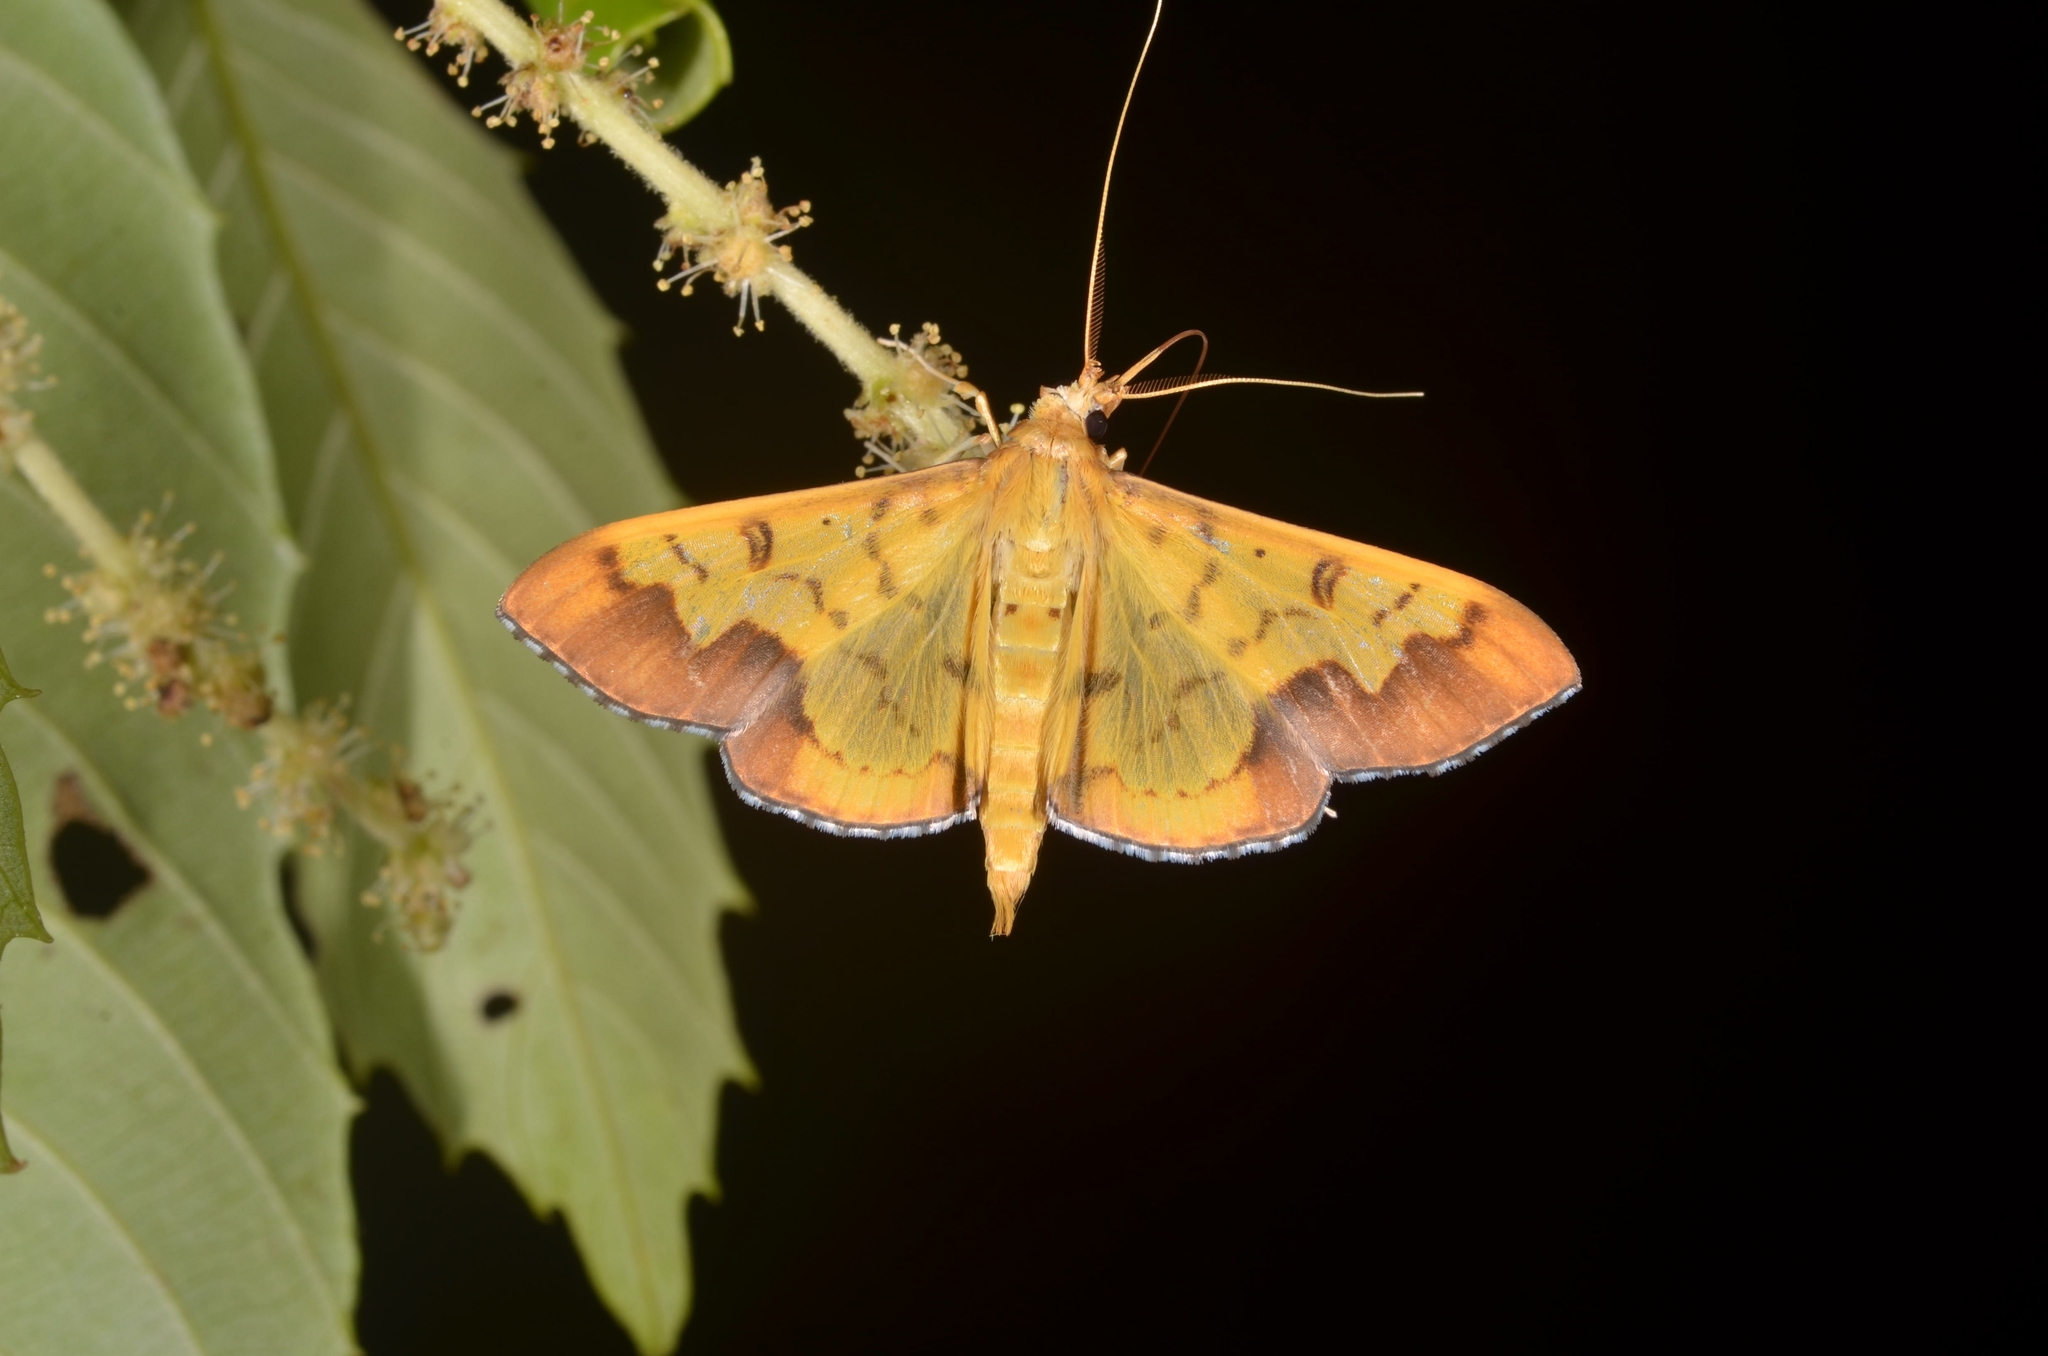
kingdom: Animalia
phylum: Arthropoda
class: Insecta
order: Lepidoptera
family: Crambidae
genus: Meroctena
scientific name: Meroctena tullalis
